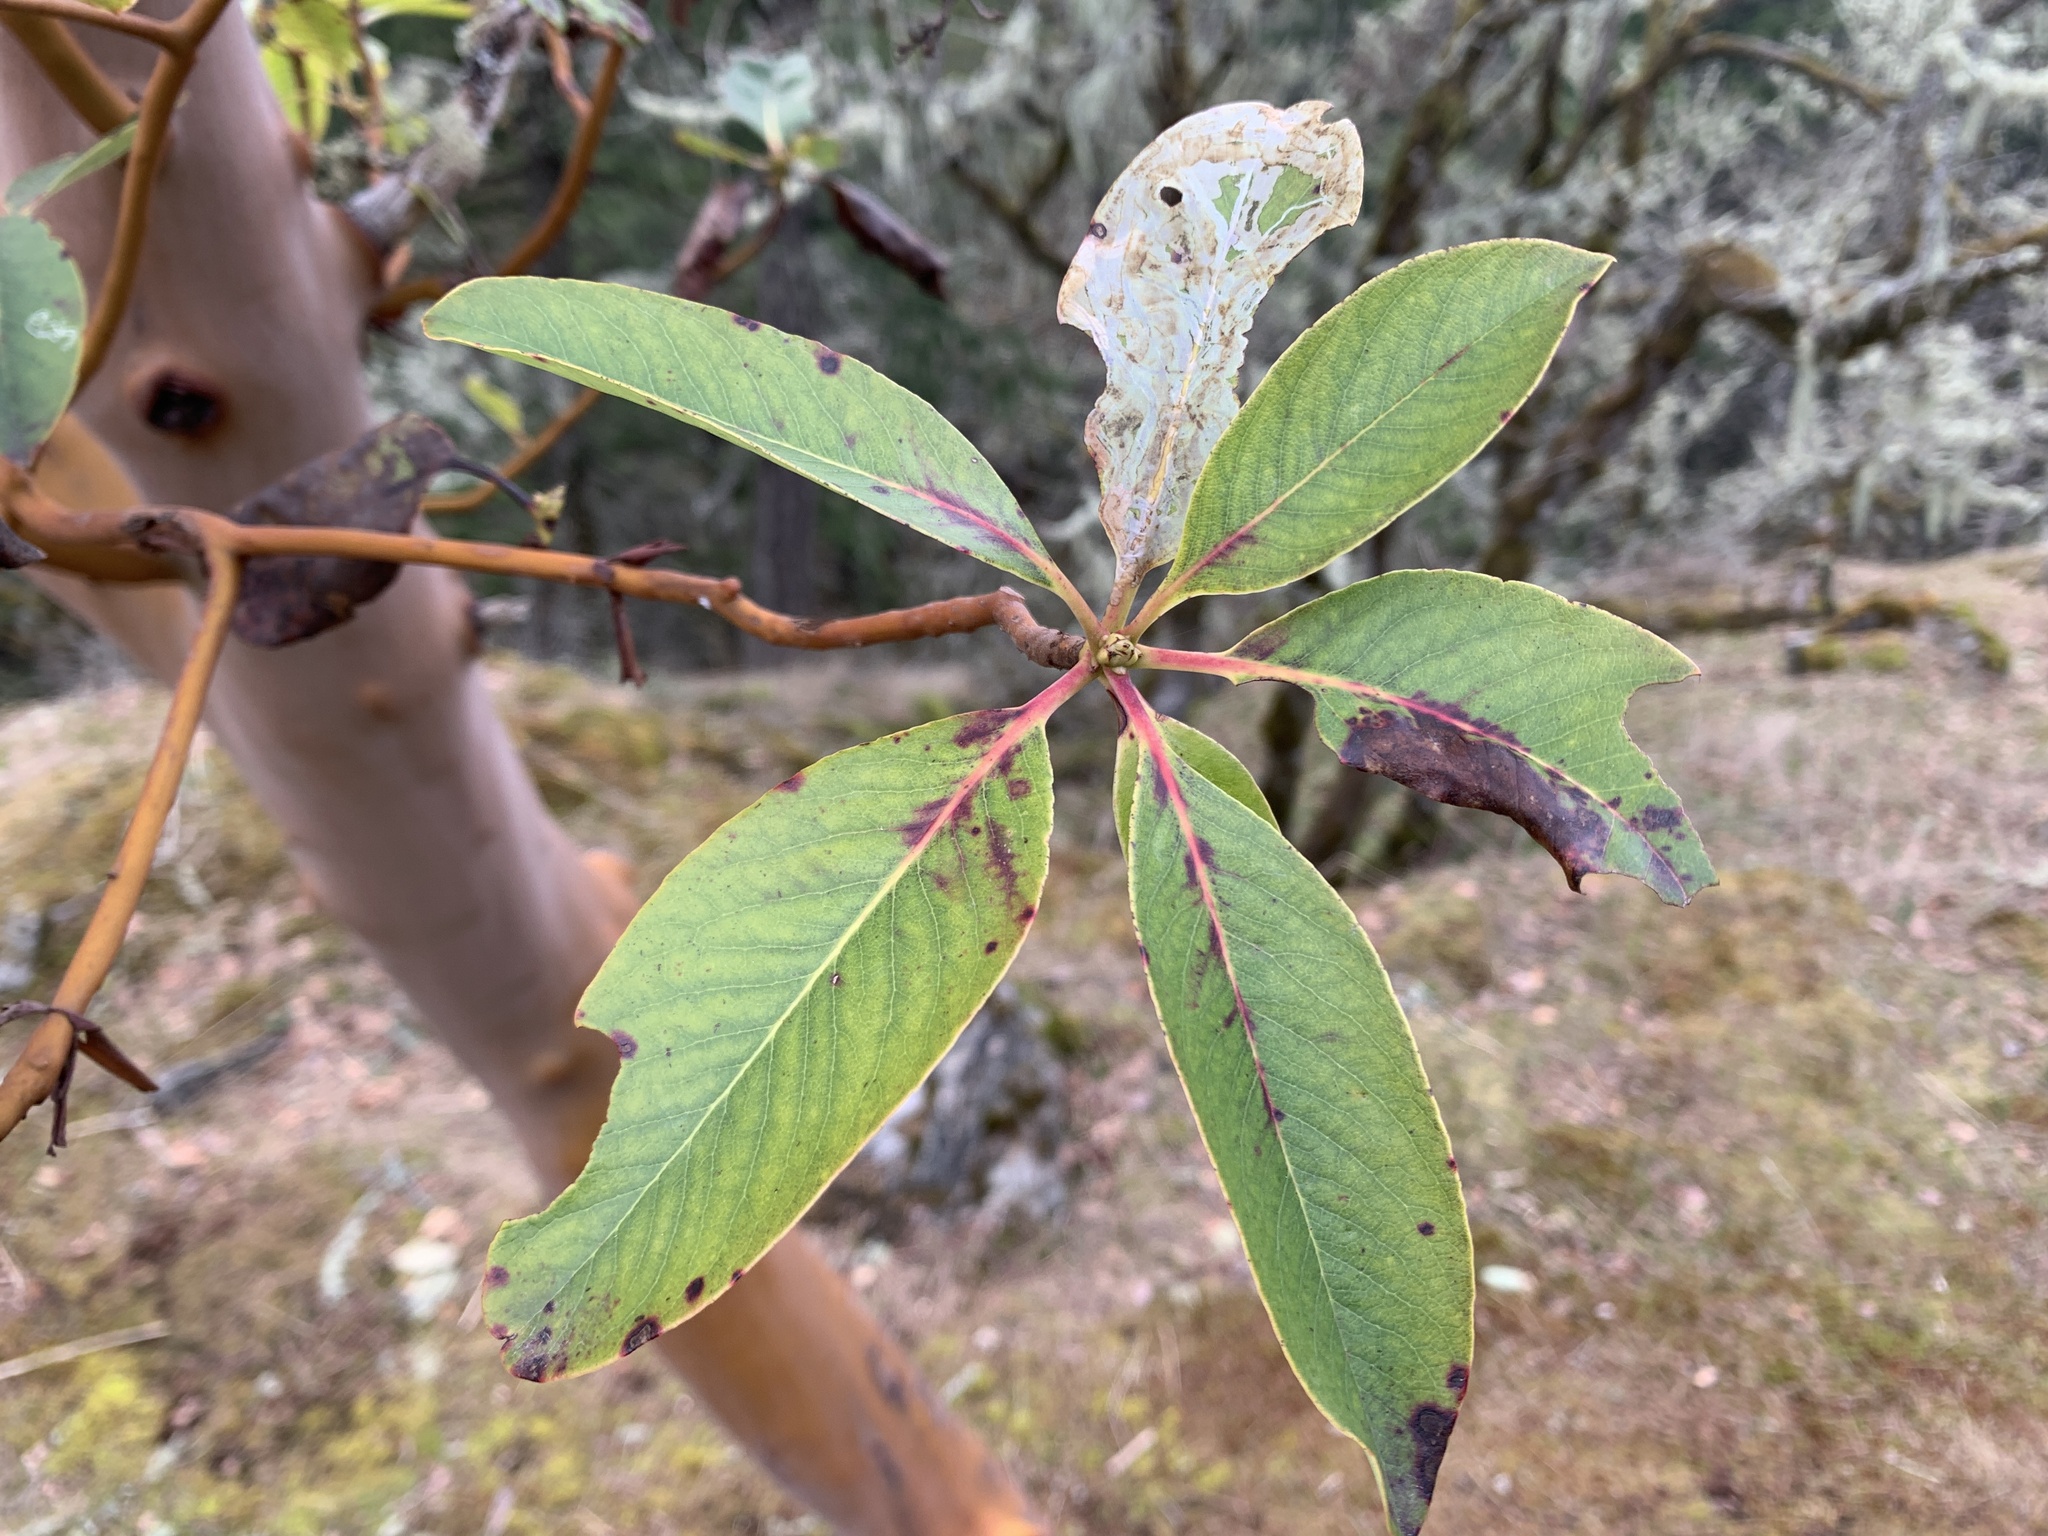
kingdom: Plantae
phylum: Tracheophyta
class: Magnoliopsida
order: Ericales
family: Ericaceae
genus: Arbutus
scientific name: Arbutus menziesii
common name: Pacific madrone
